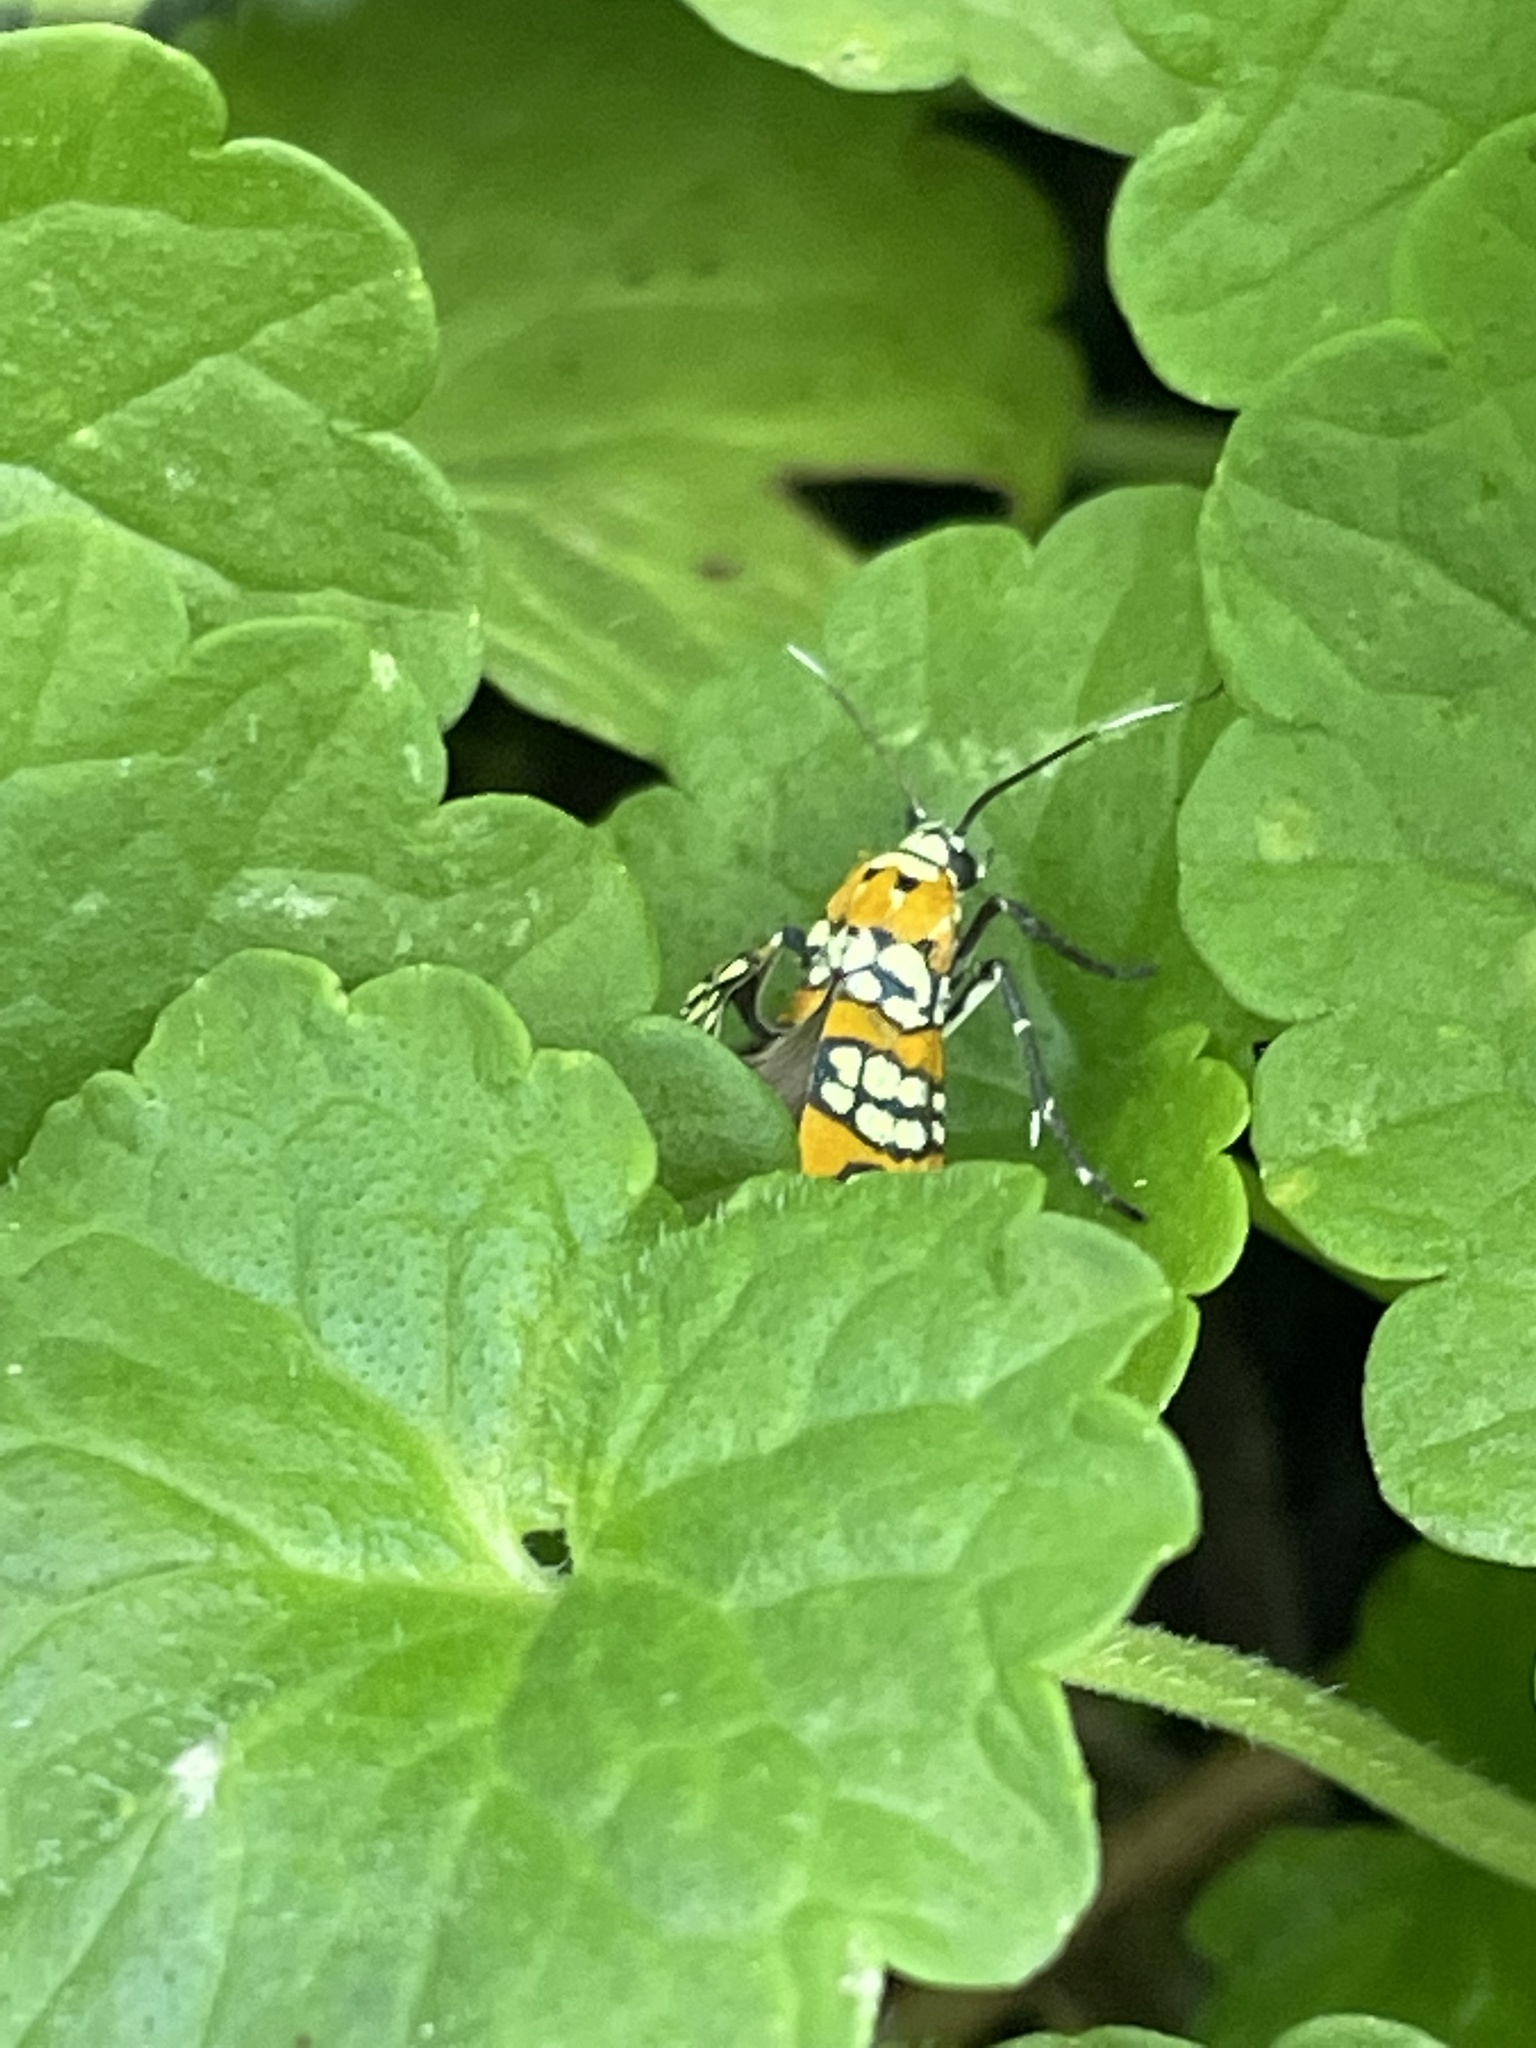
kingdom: Animalia
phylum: Arthropoda
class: Insecta
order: Lepidoptera
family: Attevidae
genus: Atteva
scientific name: Atteva punctella
